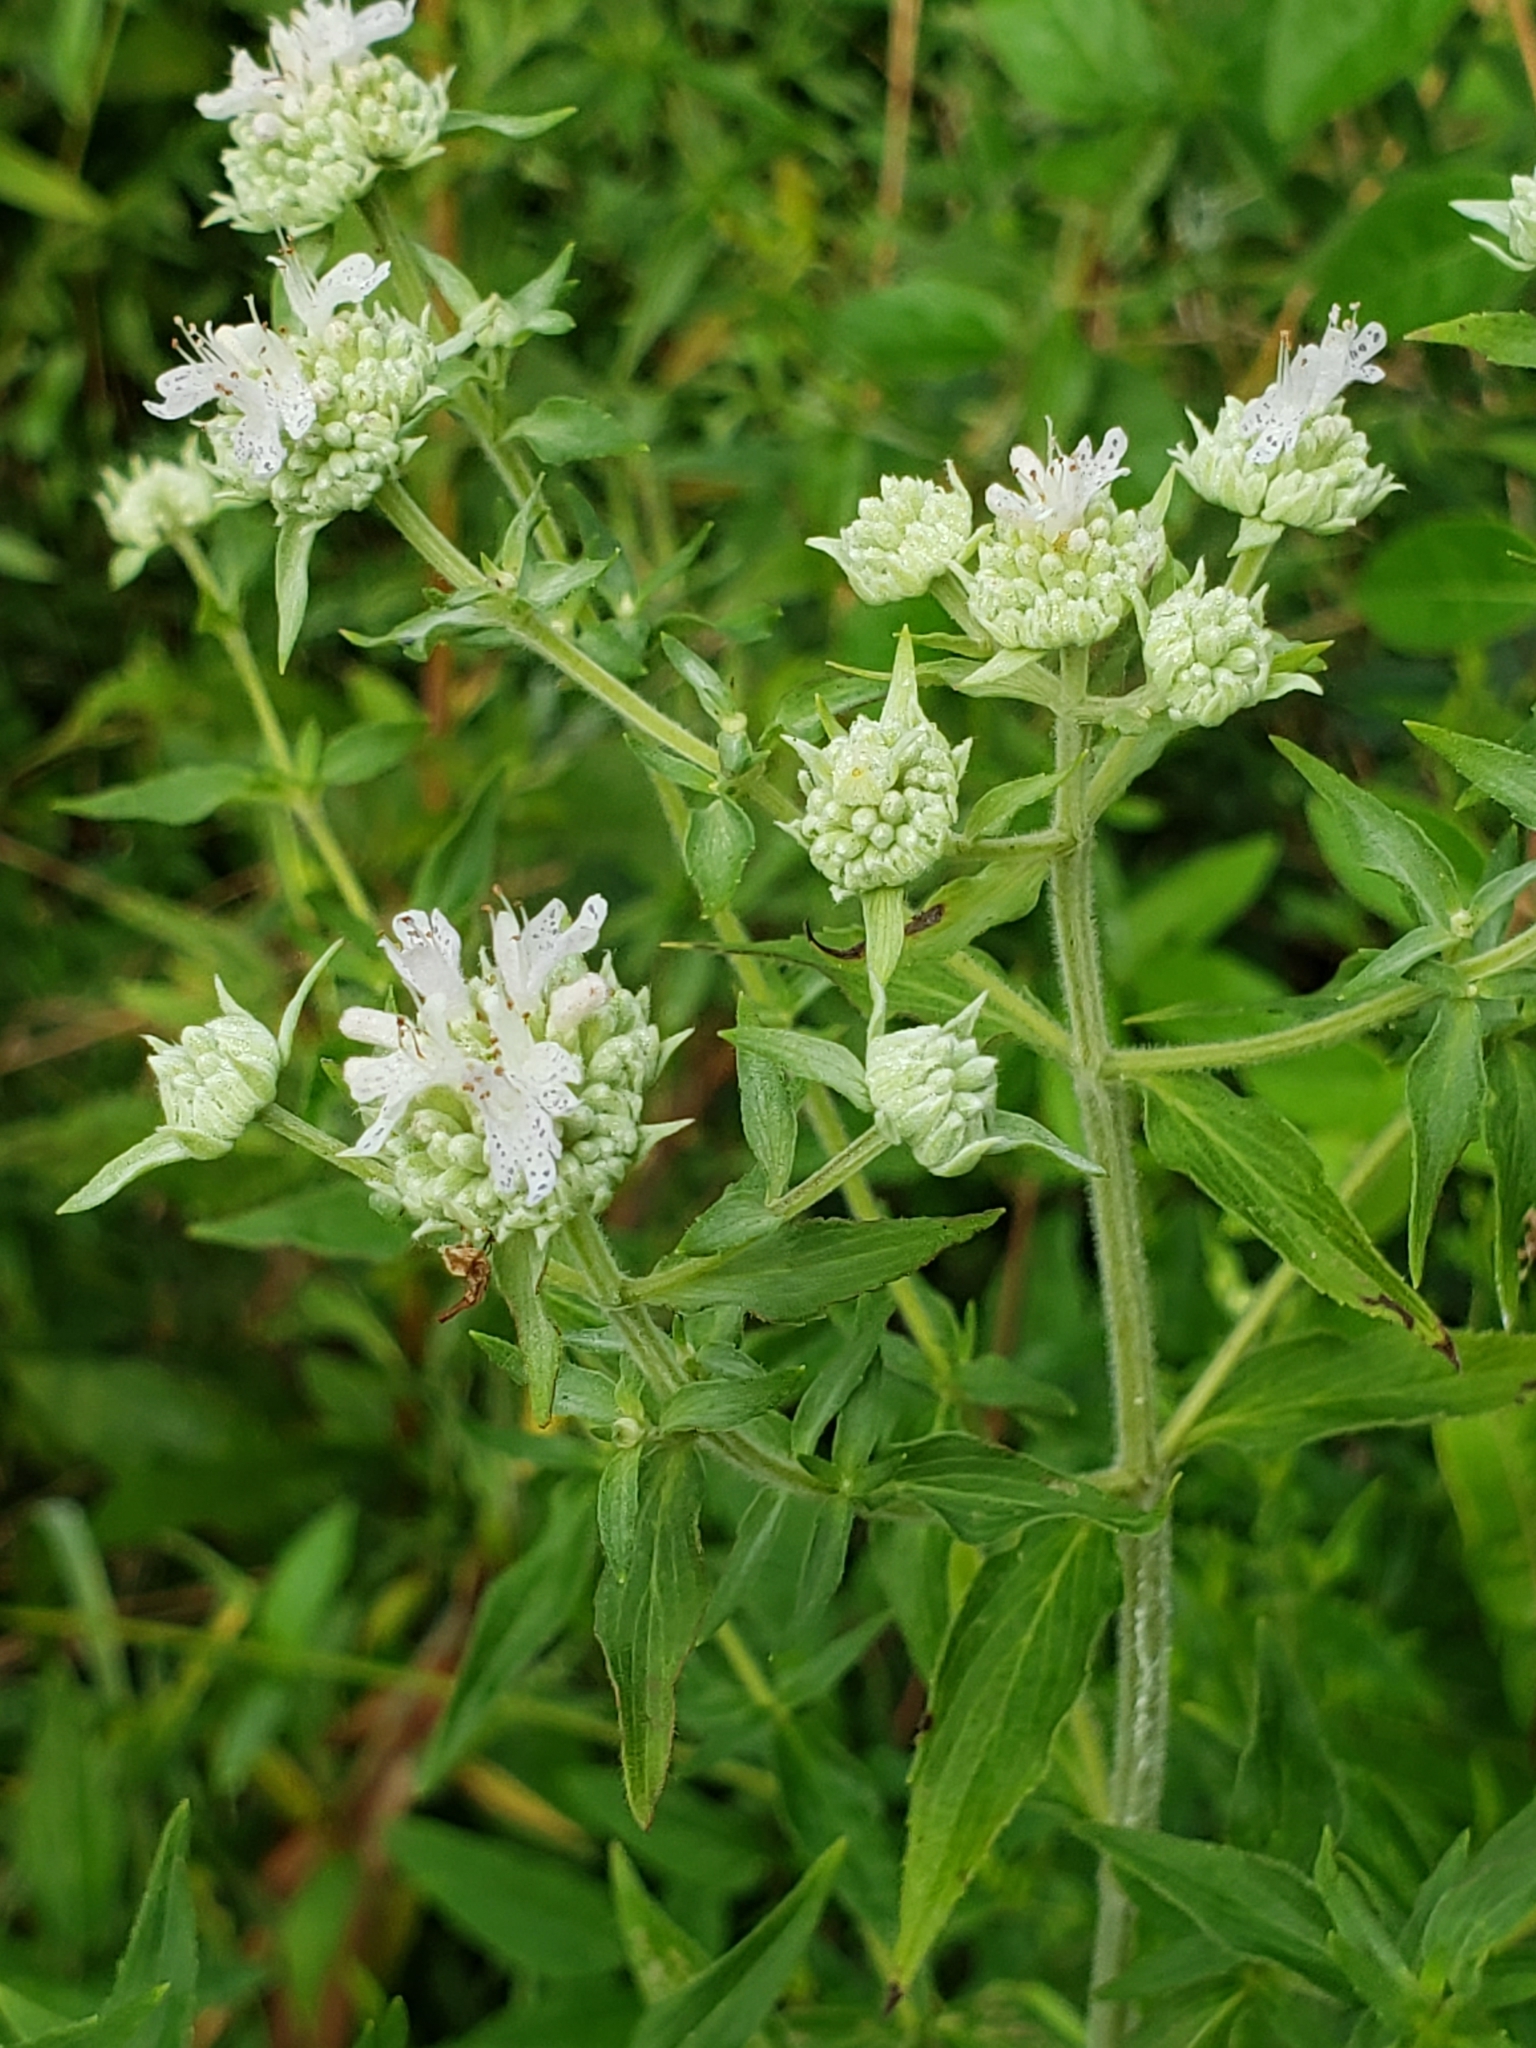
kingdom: Plantae
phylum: Tracheophyta
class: Magnoliopsida
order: Lamiales
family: Lamiaceae
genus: Pycnanthemum
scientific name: Pycnanthemum verticillatum
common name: Whorled mountain-mint
